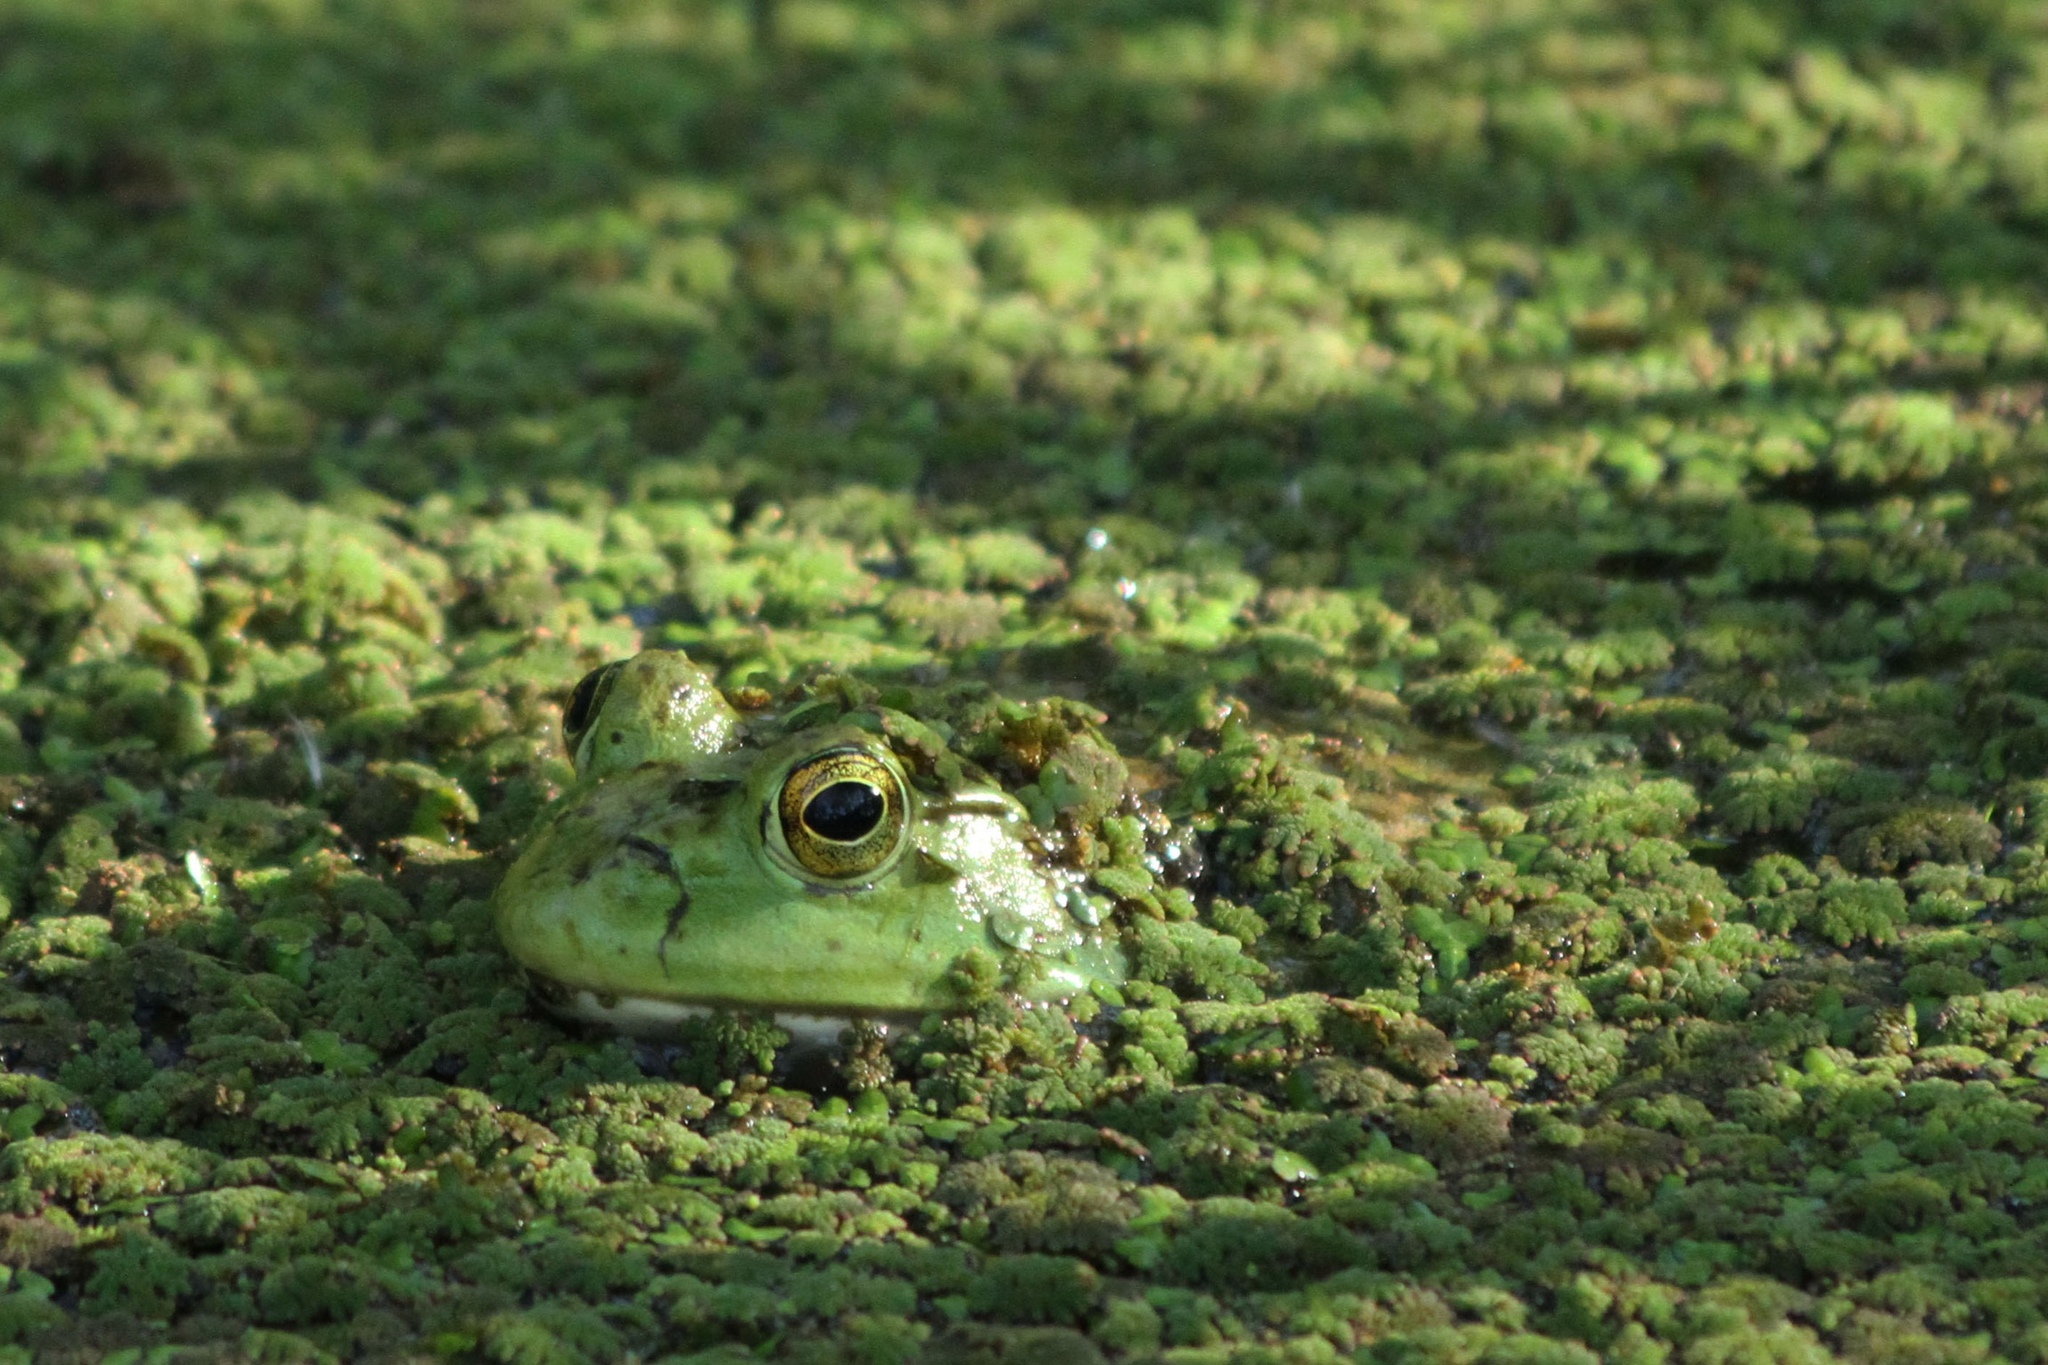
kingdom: Animalia
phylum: Chordata
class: Amphibia
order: Anura
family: Ranidae
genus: Lithobates
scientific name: Lithobates catesbeianus
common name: American bullfrog
